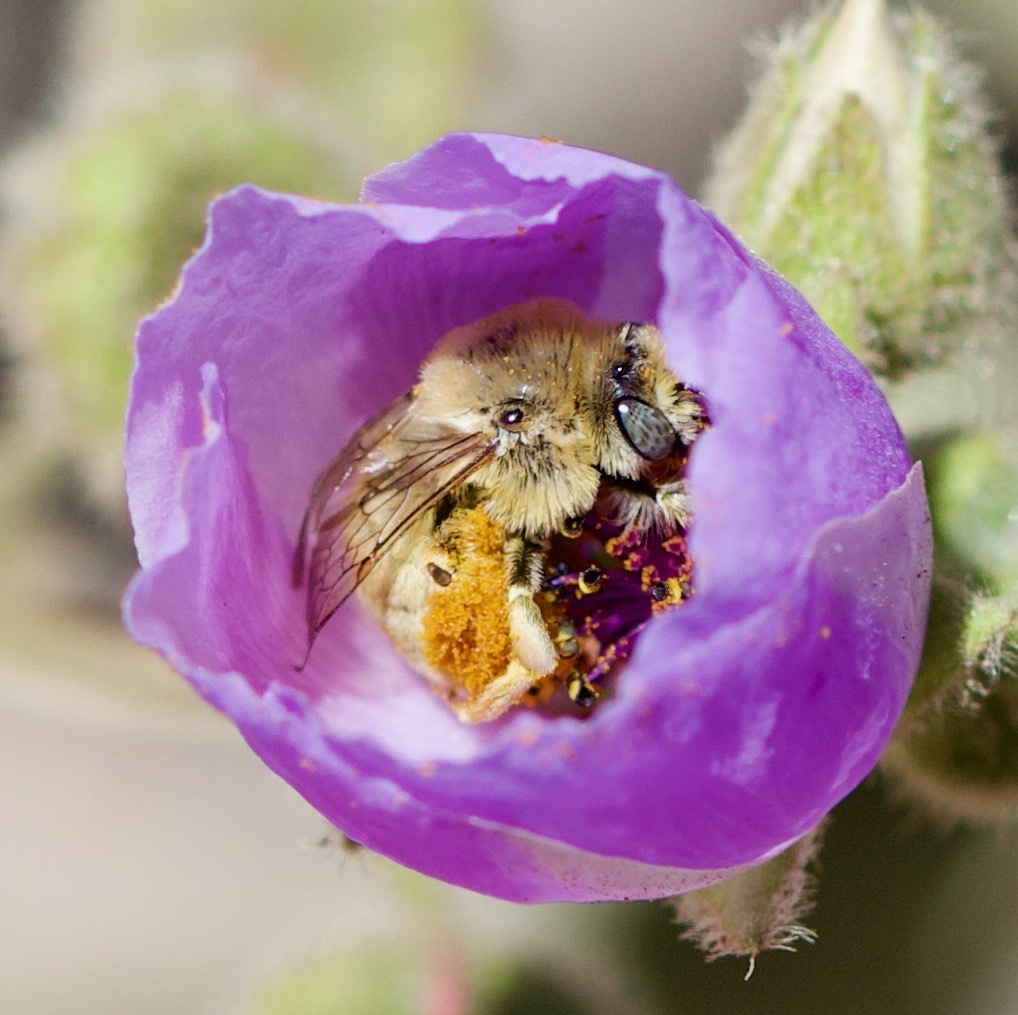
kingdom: Animalia
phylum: Arthropoda
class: Insecta
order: Hymenoptera
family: Apidae
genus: Diadasia
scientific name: Diadasia chilensis
